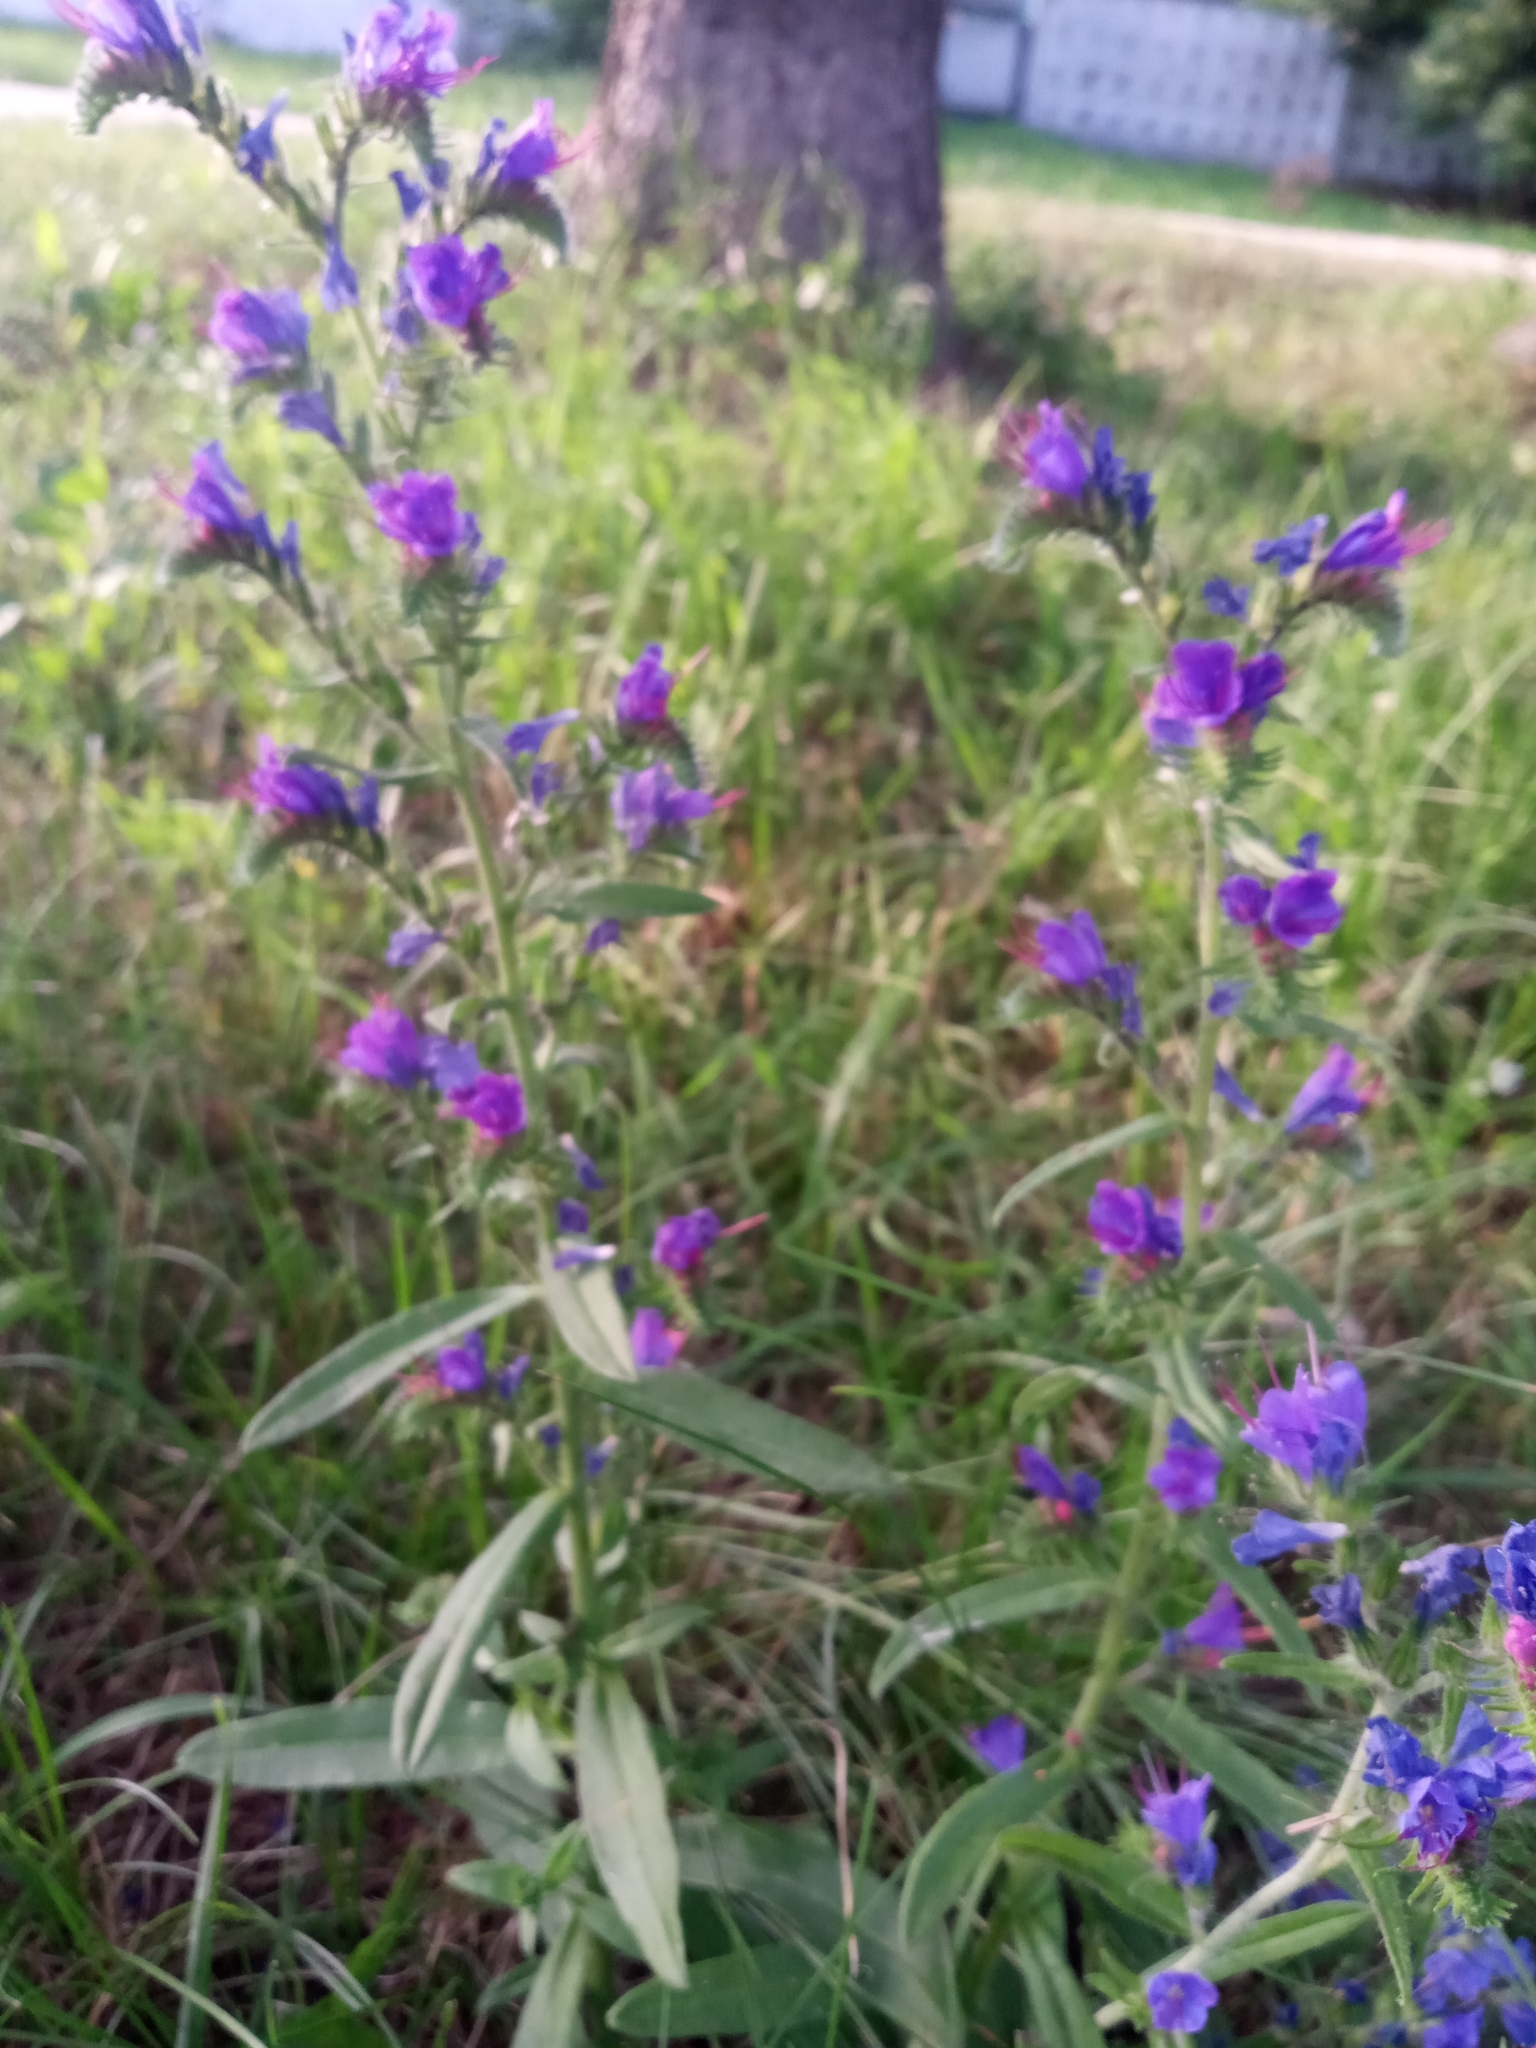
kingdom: Plantae
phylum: Tracheophyta
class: Magnoliopsida
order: Boraginales
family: Boraginaceae
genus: Echium
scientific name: Echium vulgare
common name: Common viper's bugloss
